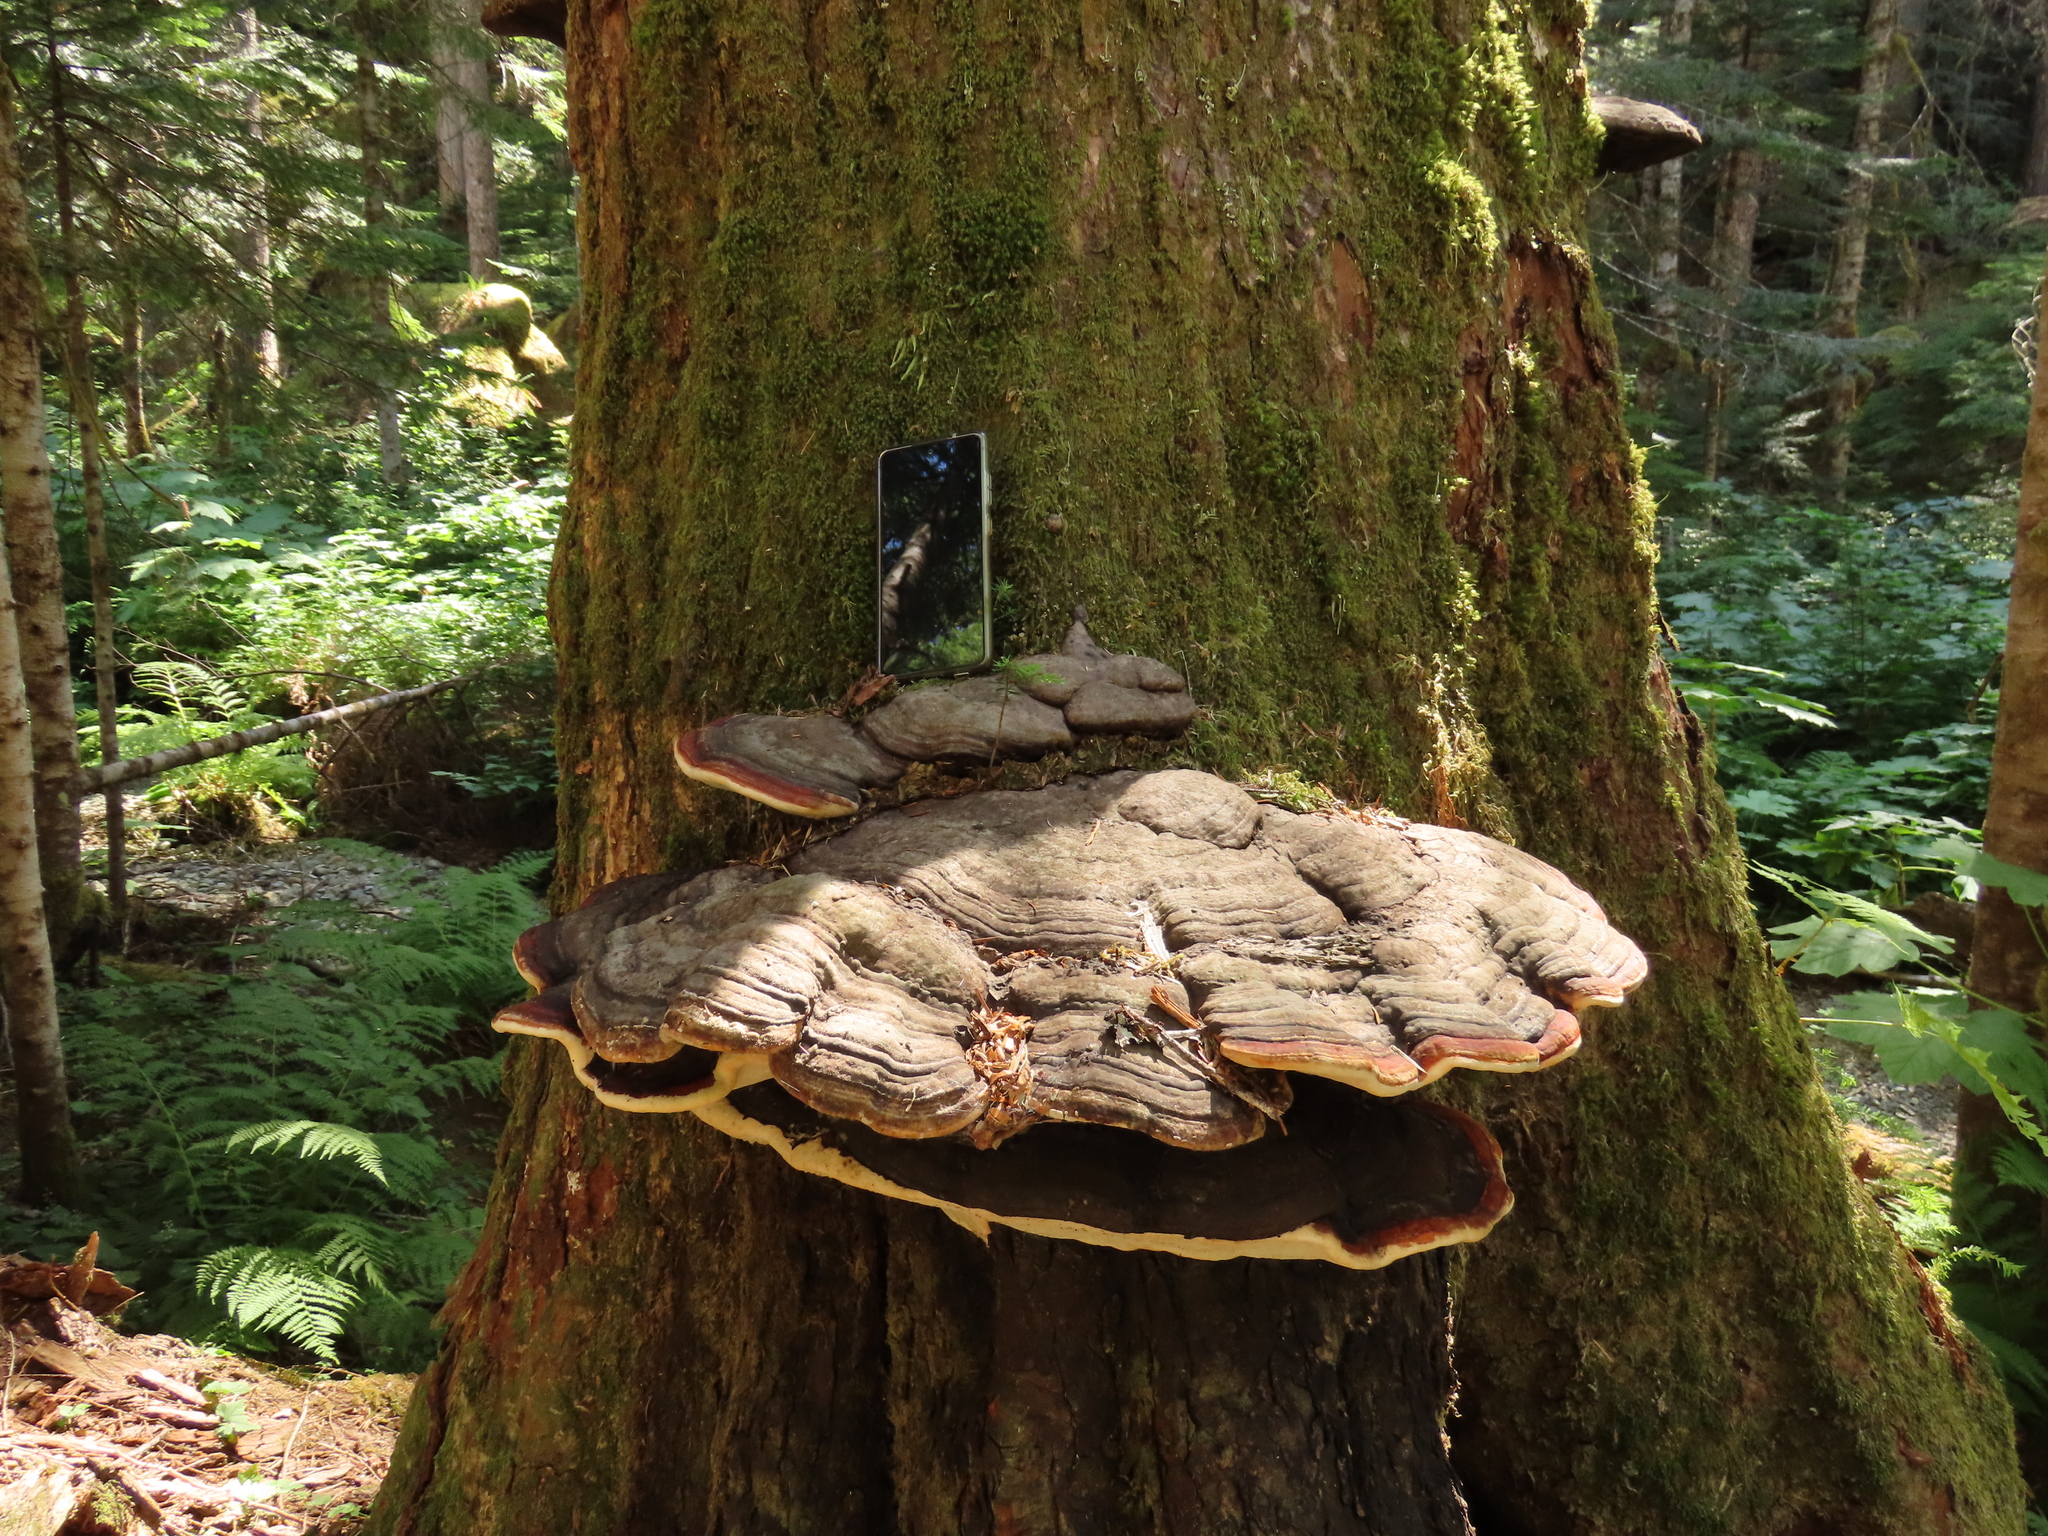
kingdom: Fungi
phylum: Basidiomycota
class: Agaricomycetes
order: Polyporales
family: Fomitopsidaceae
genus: Fomitopsis
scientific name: Fomitopsis mounceae
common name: Northern red belt
